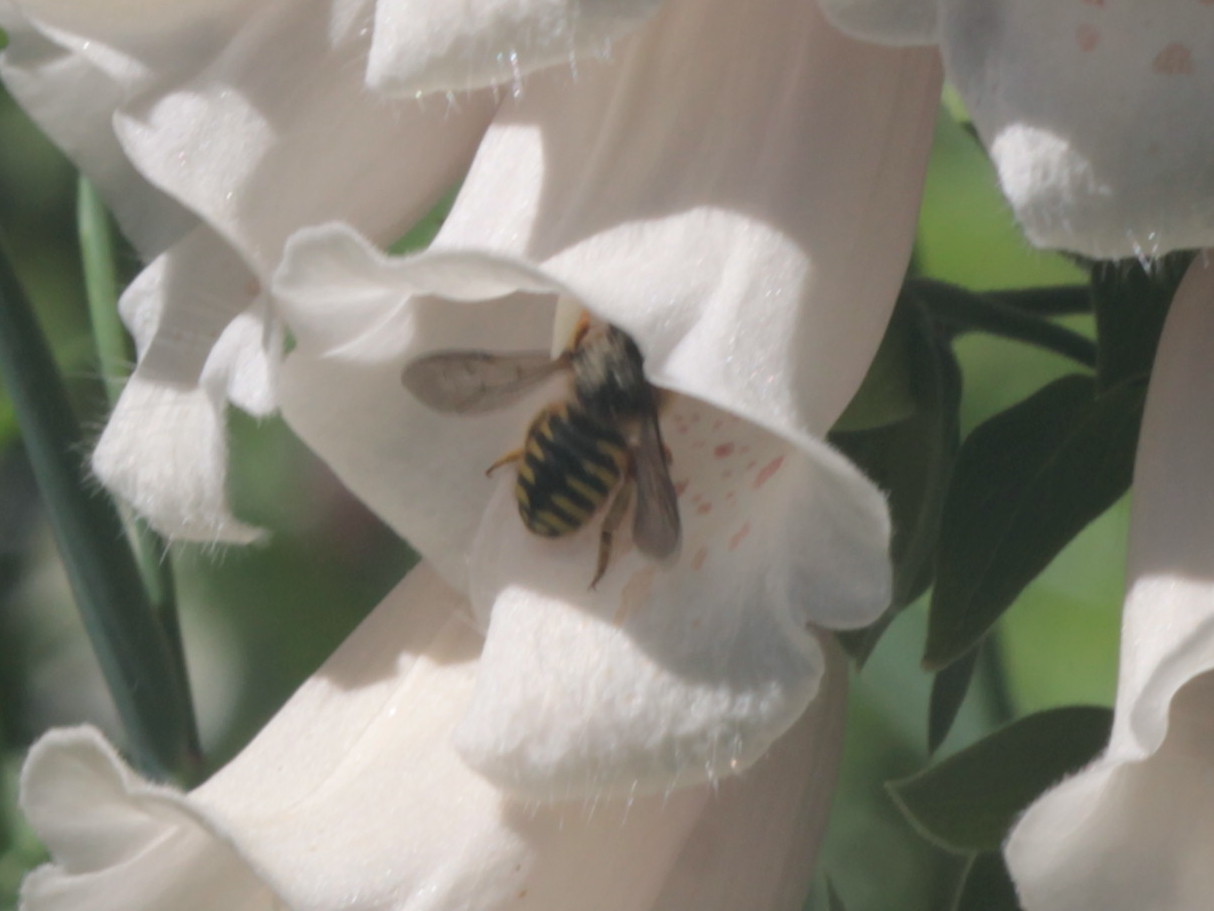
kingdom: Animalia
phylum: Arthropoda
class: Insecta
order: Hymenoptera
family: Megachilidae
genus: Anthidium
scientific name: Anthidium manicatum
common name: Wool carder bee
